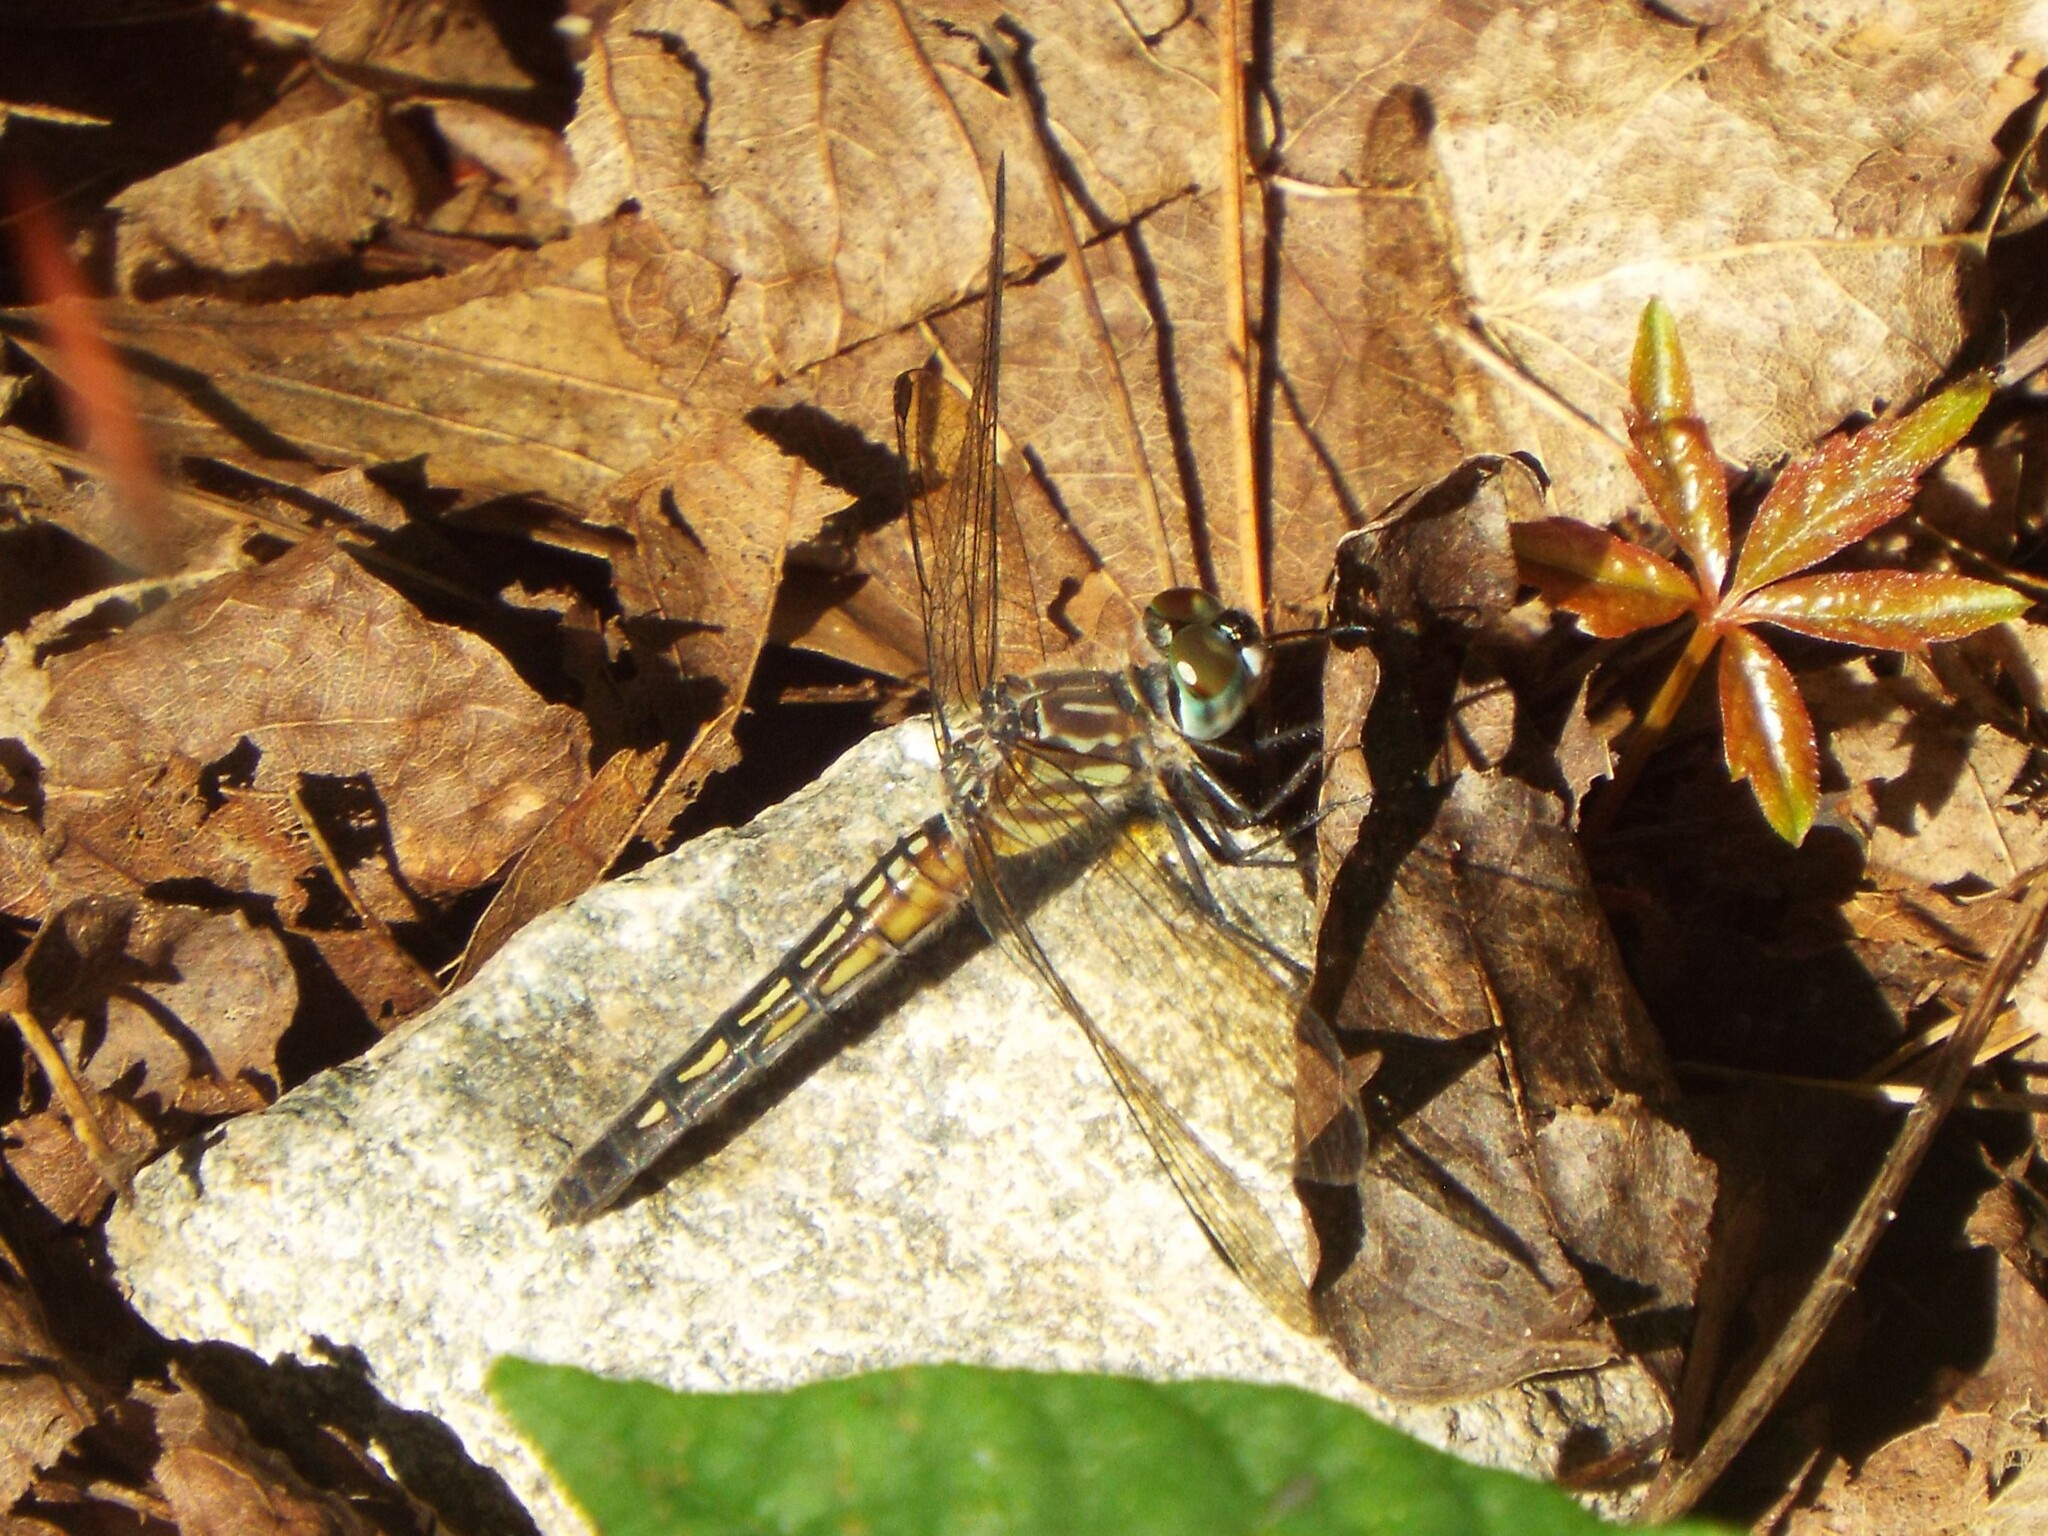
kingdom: Animalia
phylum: Arthropoda
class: Insecta
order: Odonata
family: Libellulidae
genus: Pachydiplax
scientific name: Pachydiplax longipennis
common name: Blue dasher
